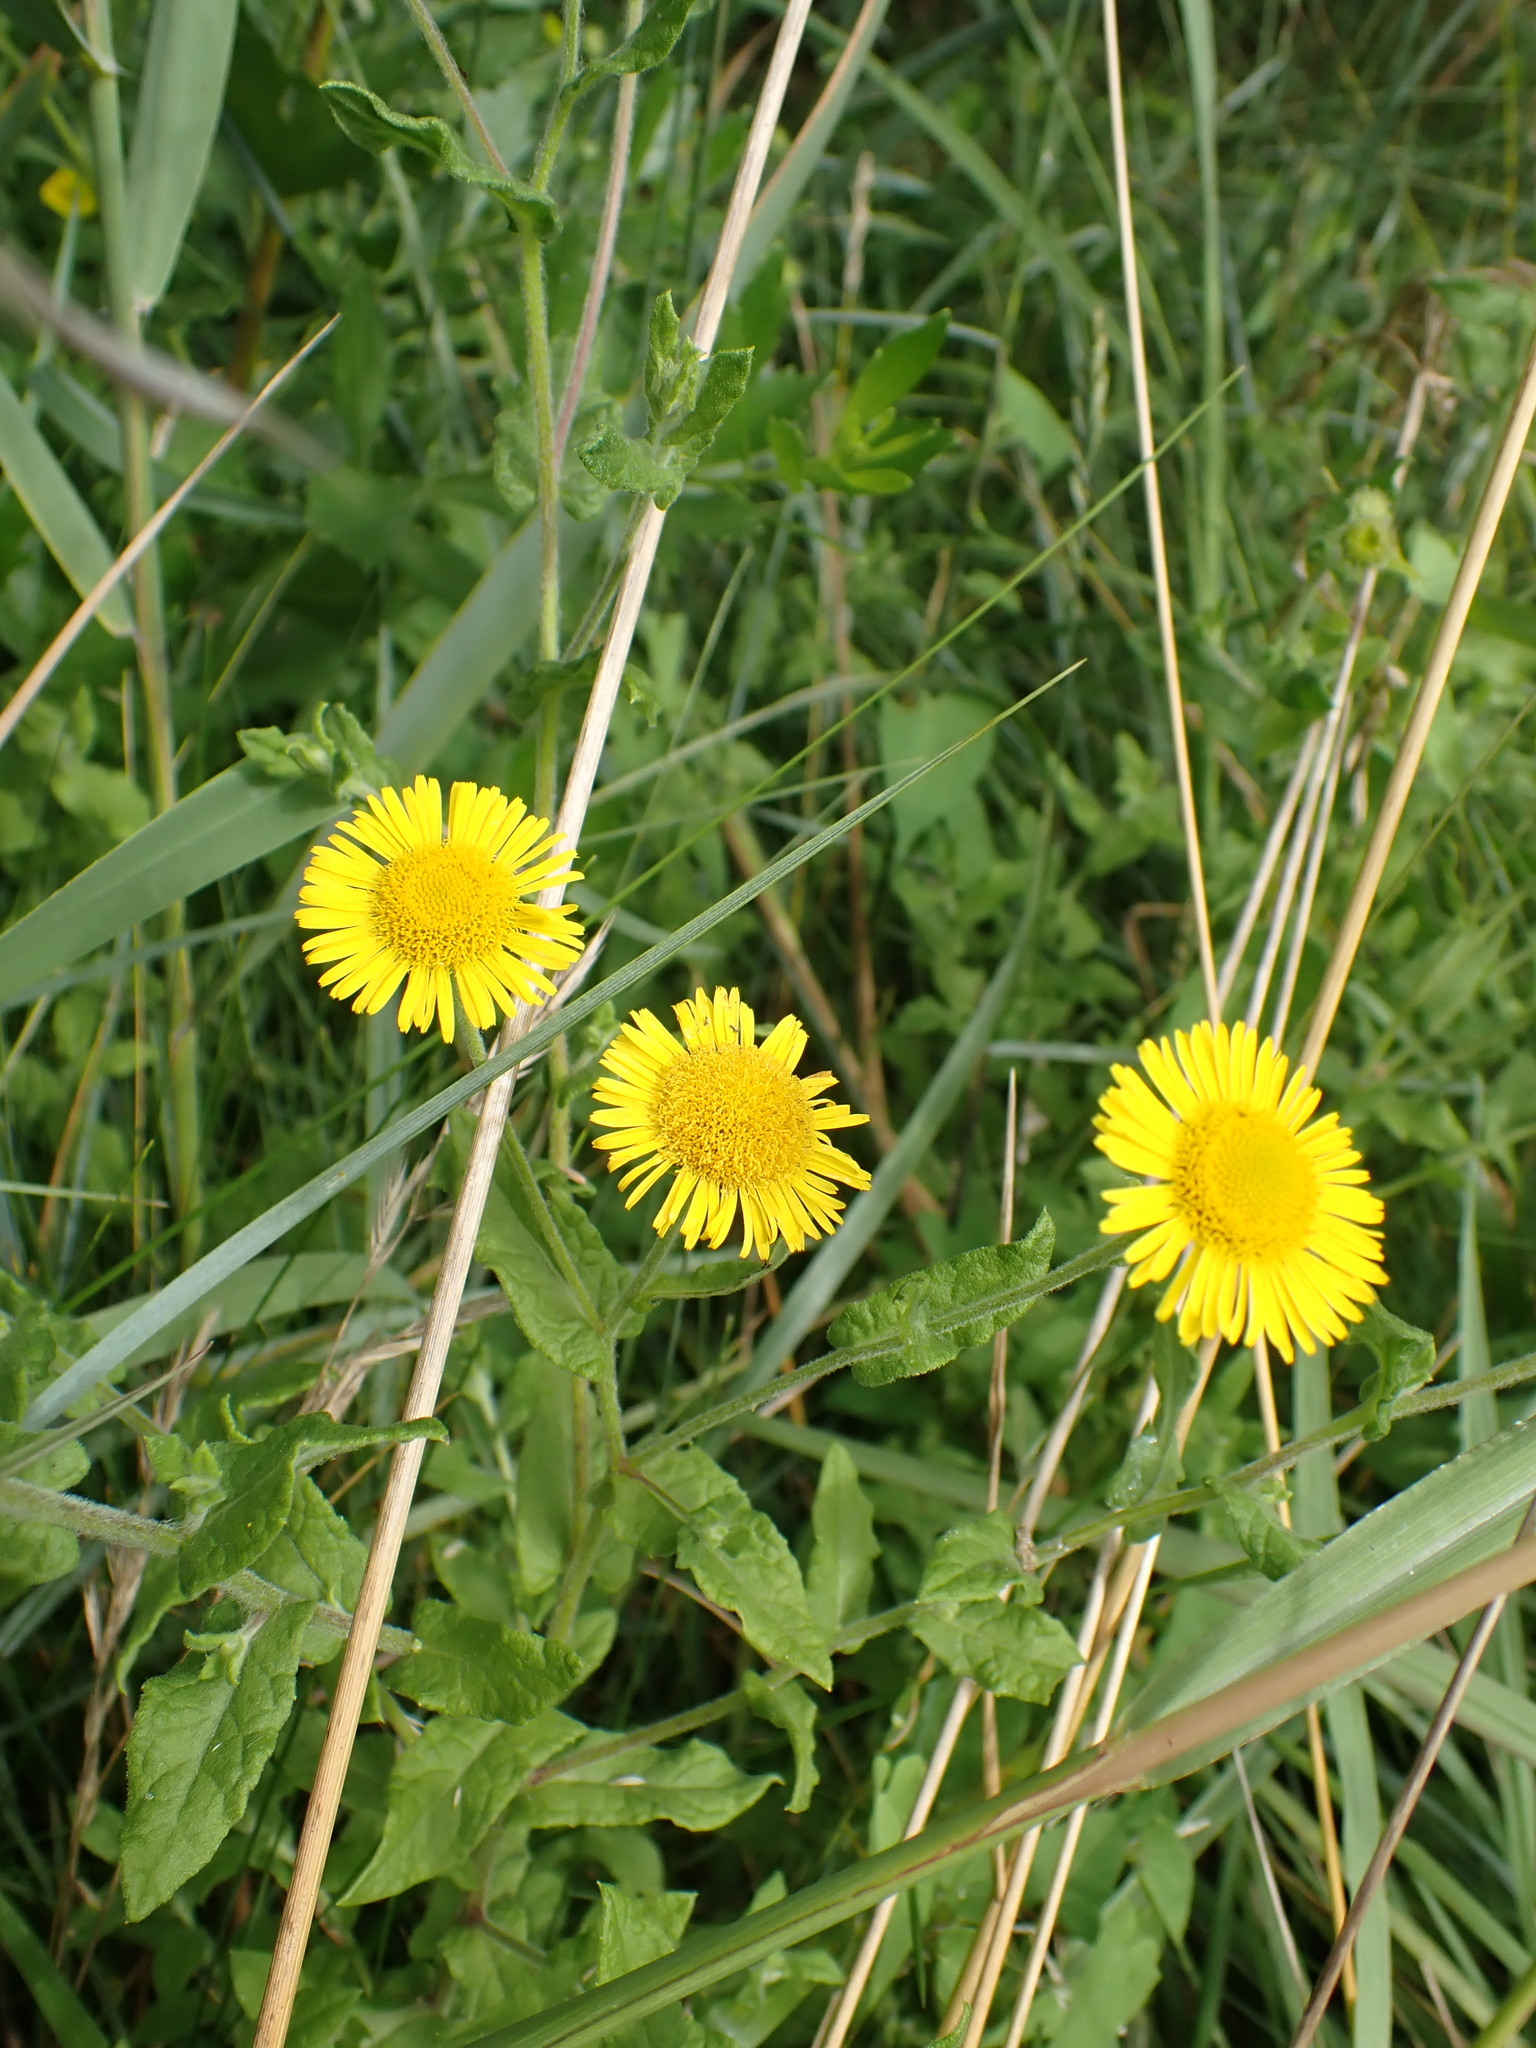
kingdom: Plantae
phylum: Tracheophyta
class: Magnoliopsida
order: Asterales
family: Asteraceae
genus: Pulicaria
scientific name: Pulicaria dysenterica
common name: Common fleabane
